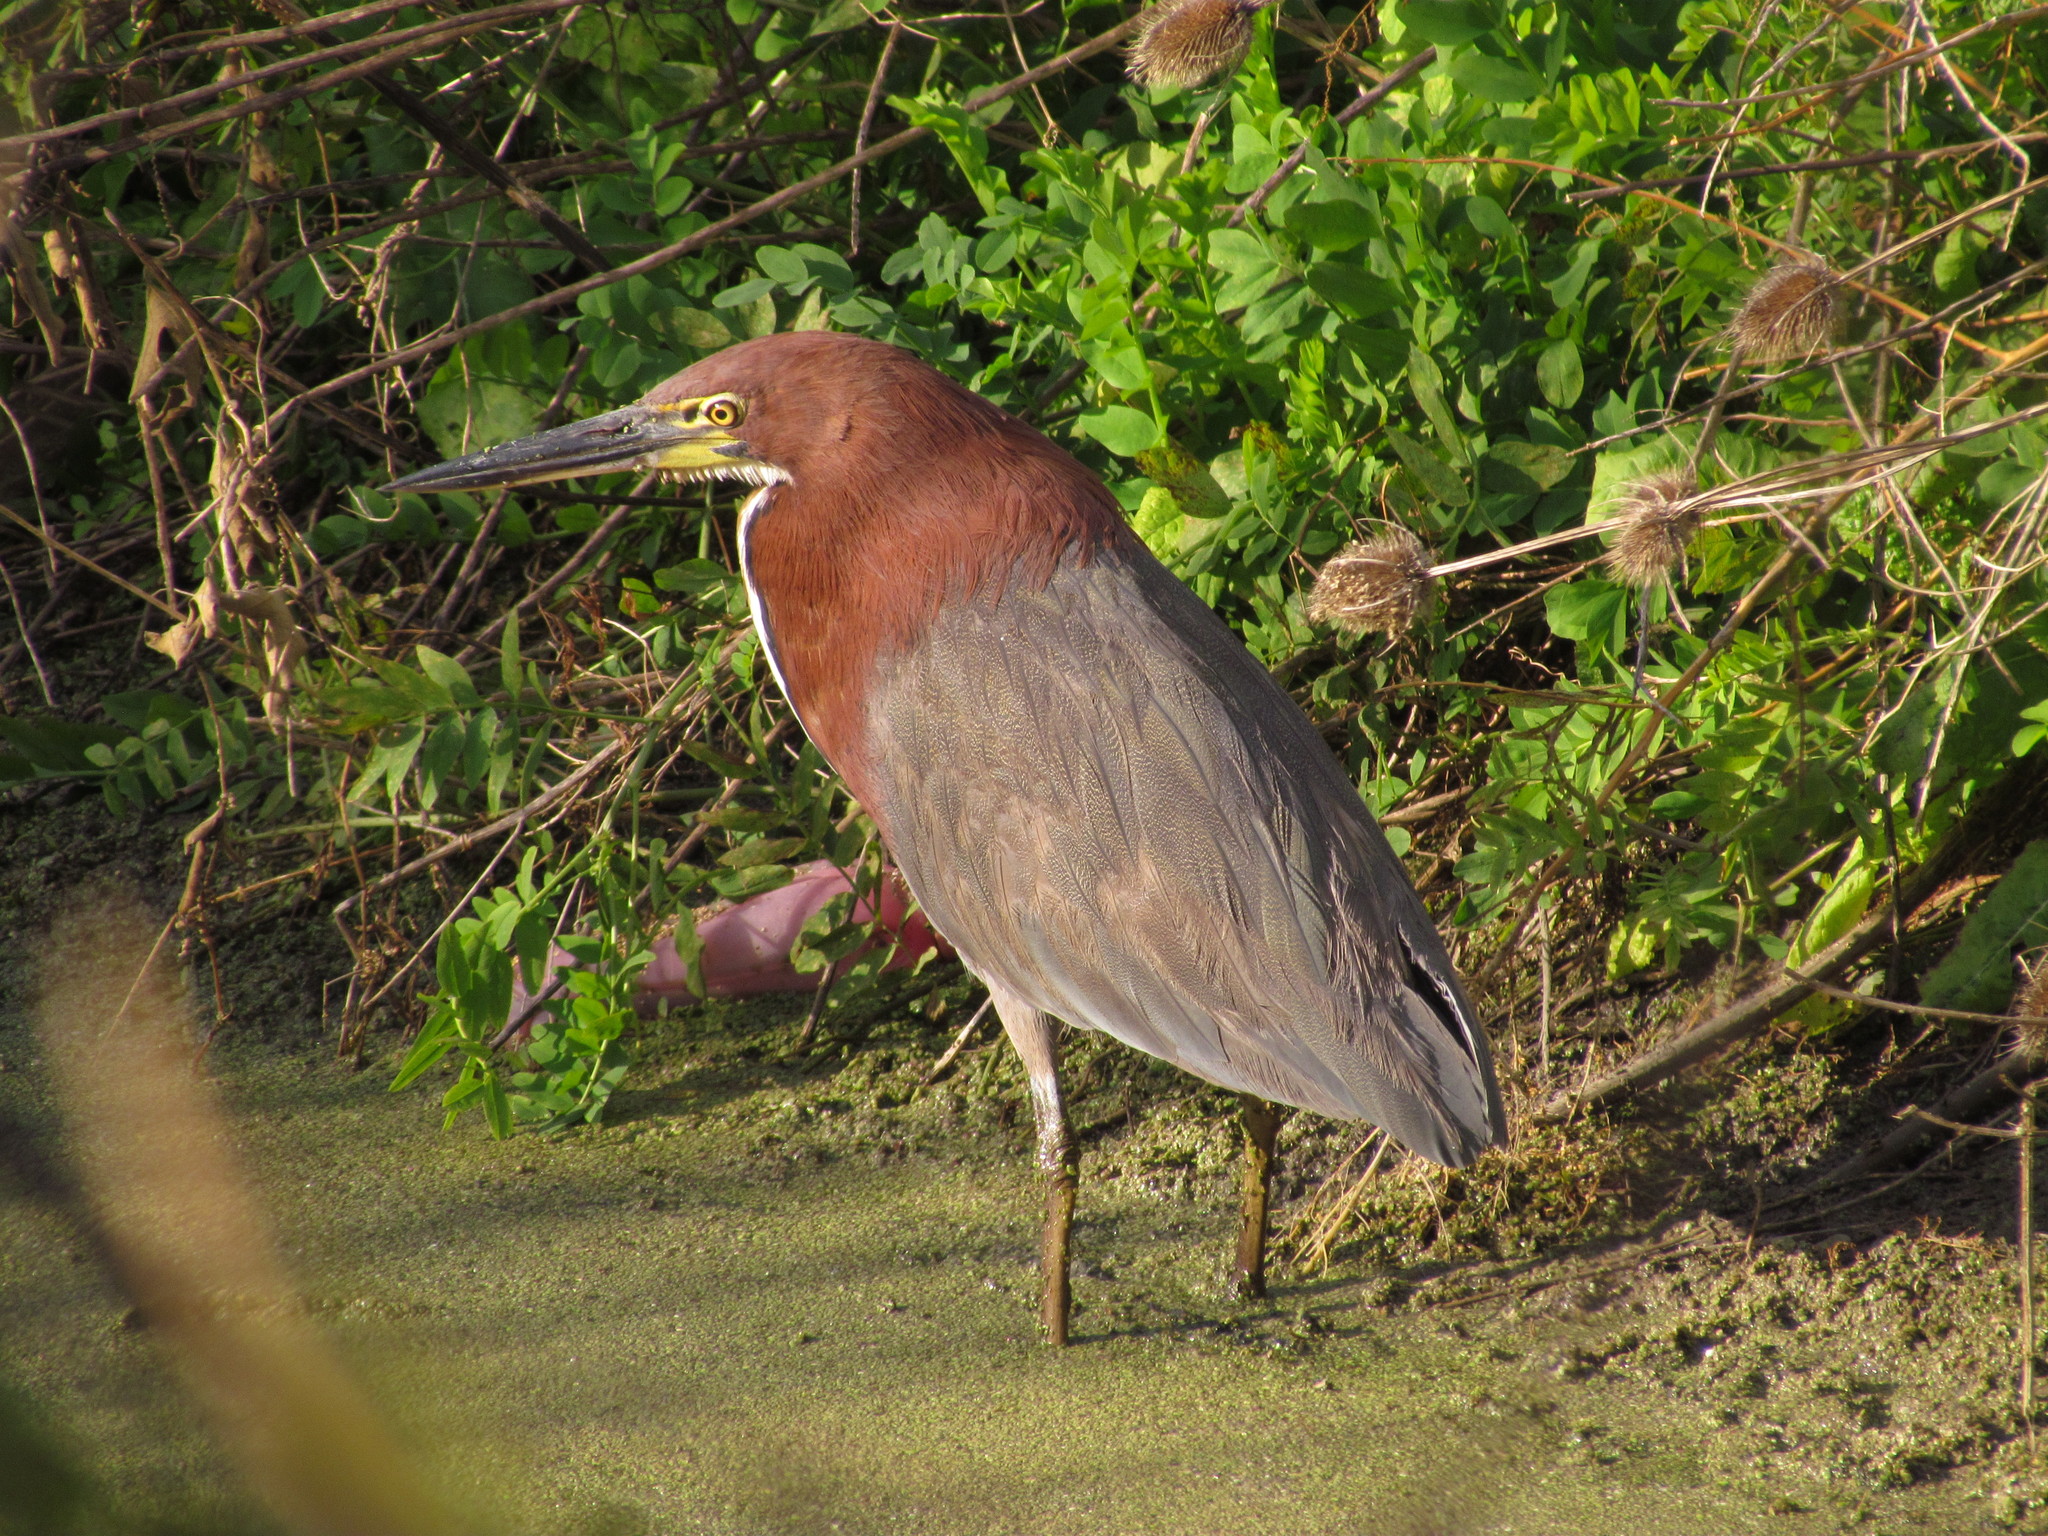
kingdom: Animalia
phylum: Chordata
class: Aves
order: Pelecaniformes
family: Ardeidae
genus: Tigrisoma
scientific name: Tigrisoma lineatum
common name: Rufescent tiger-heron
